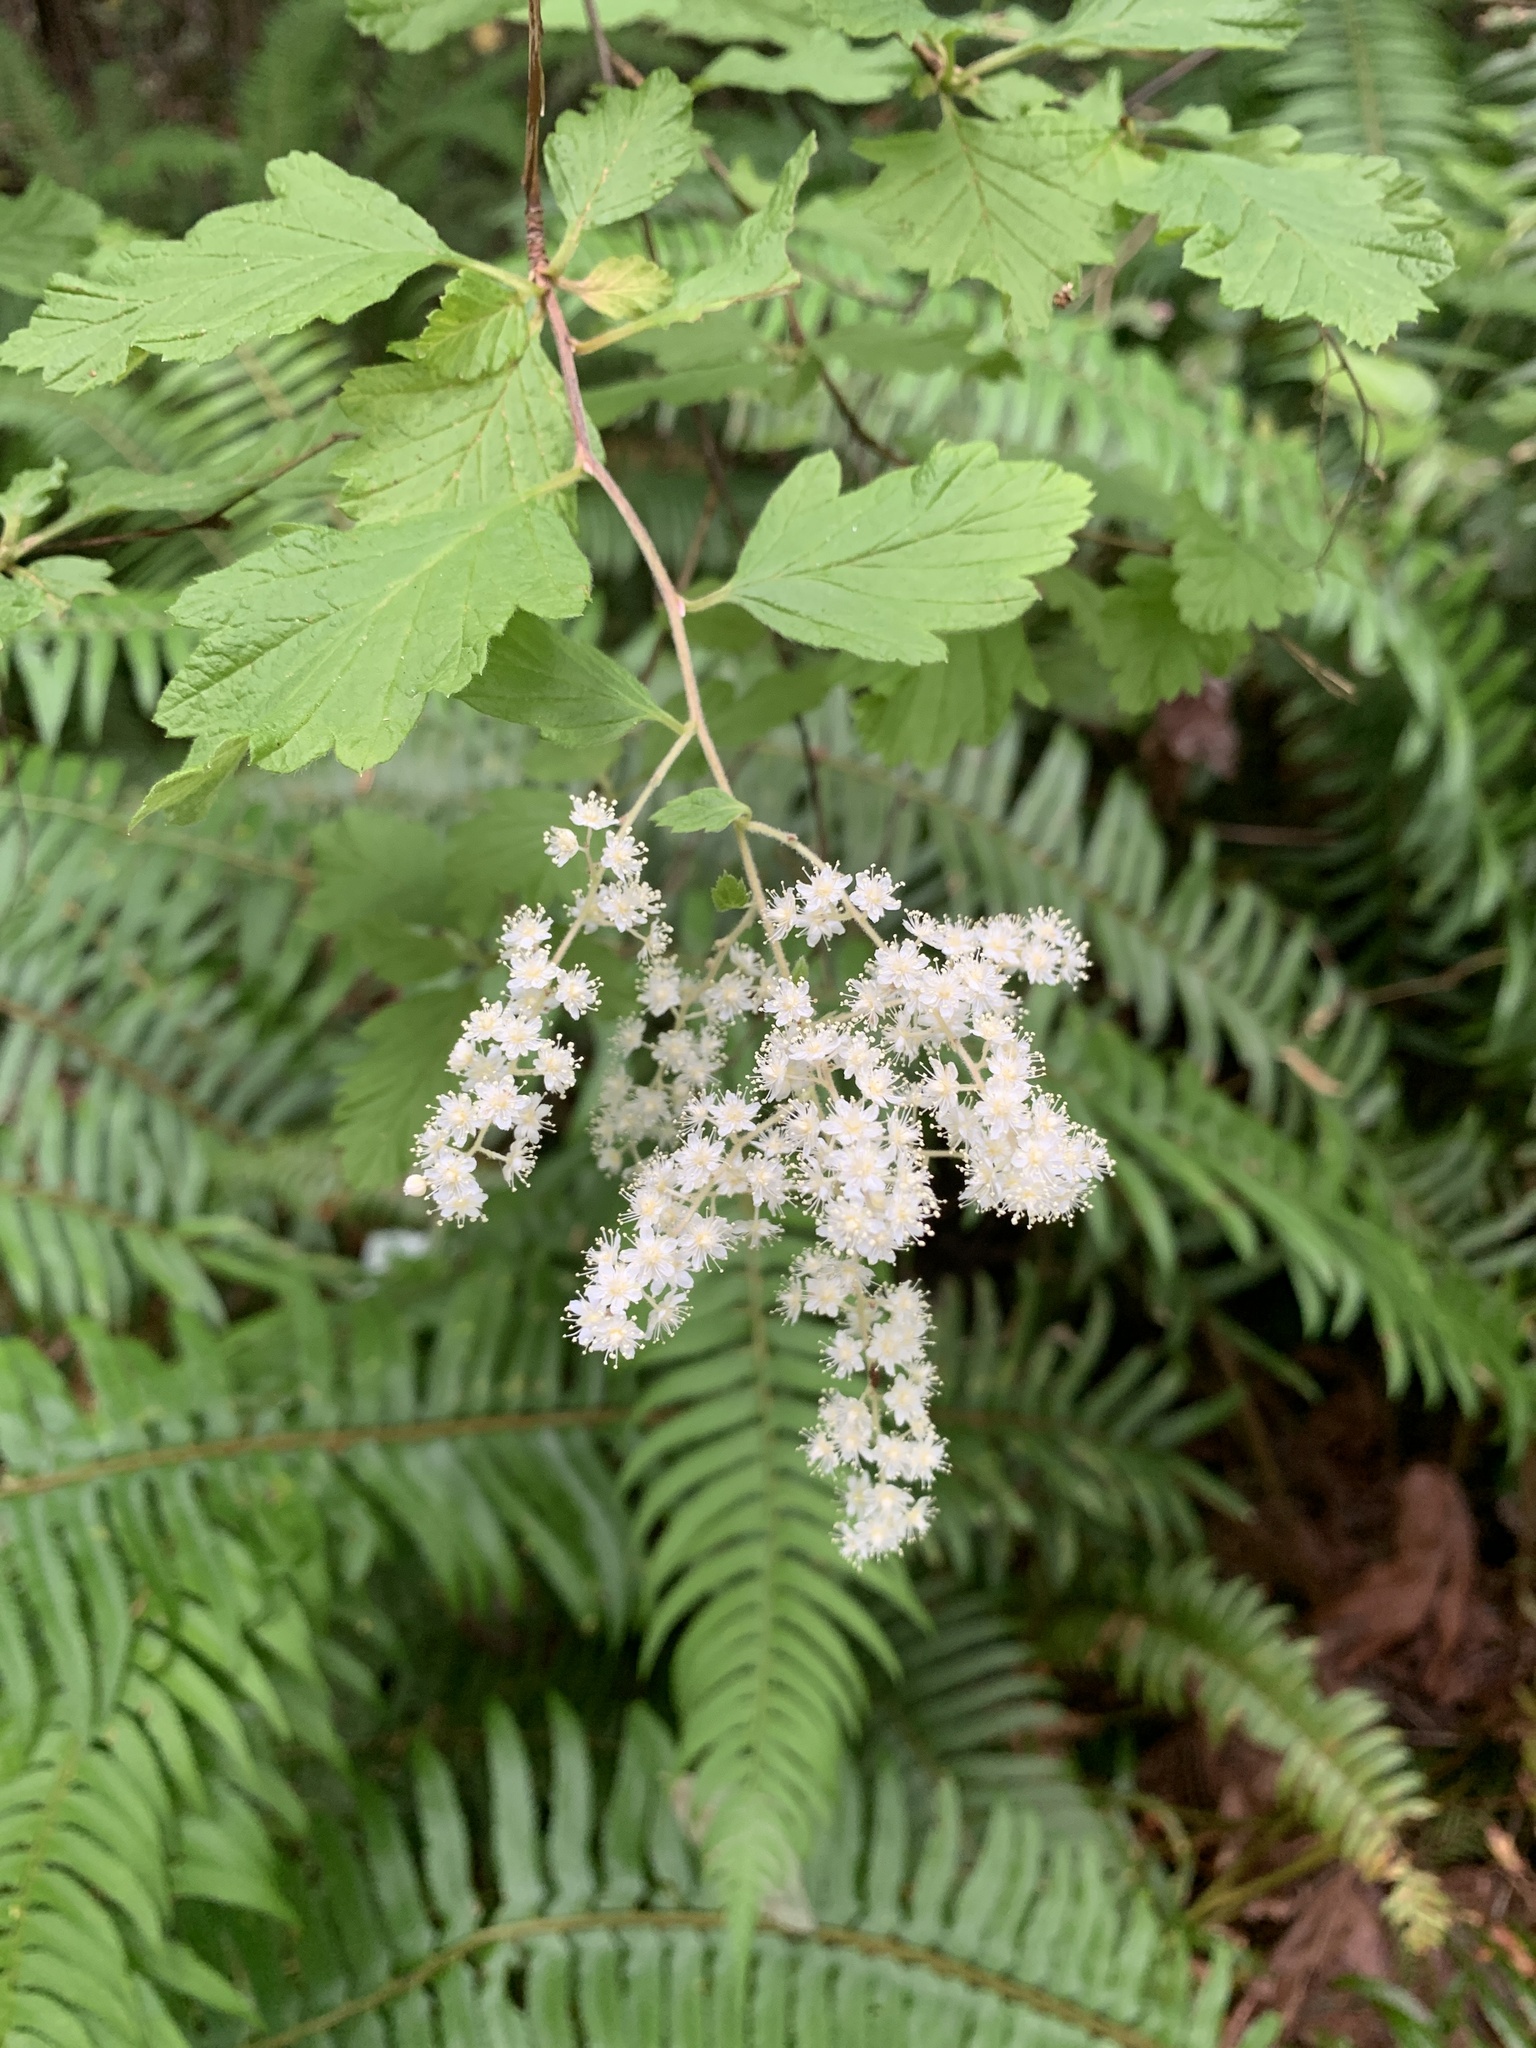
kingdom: Plantae
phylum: Tracheophyta
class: Magnoliopsida
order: Rosales
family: Rosaceae
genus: Holodiscus
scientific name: Holodiscus discolor
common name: Oceanspray
